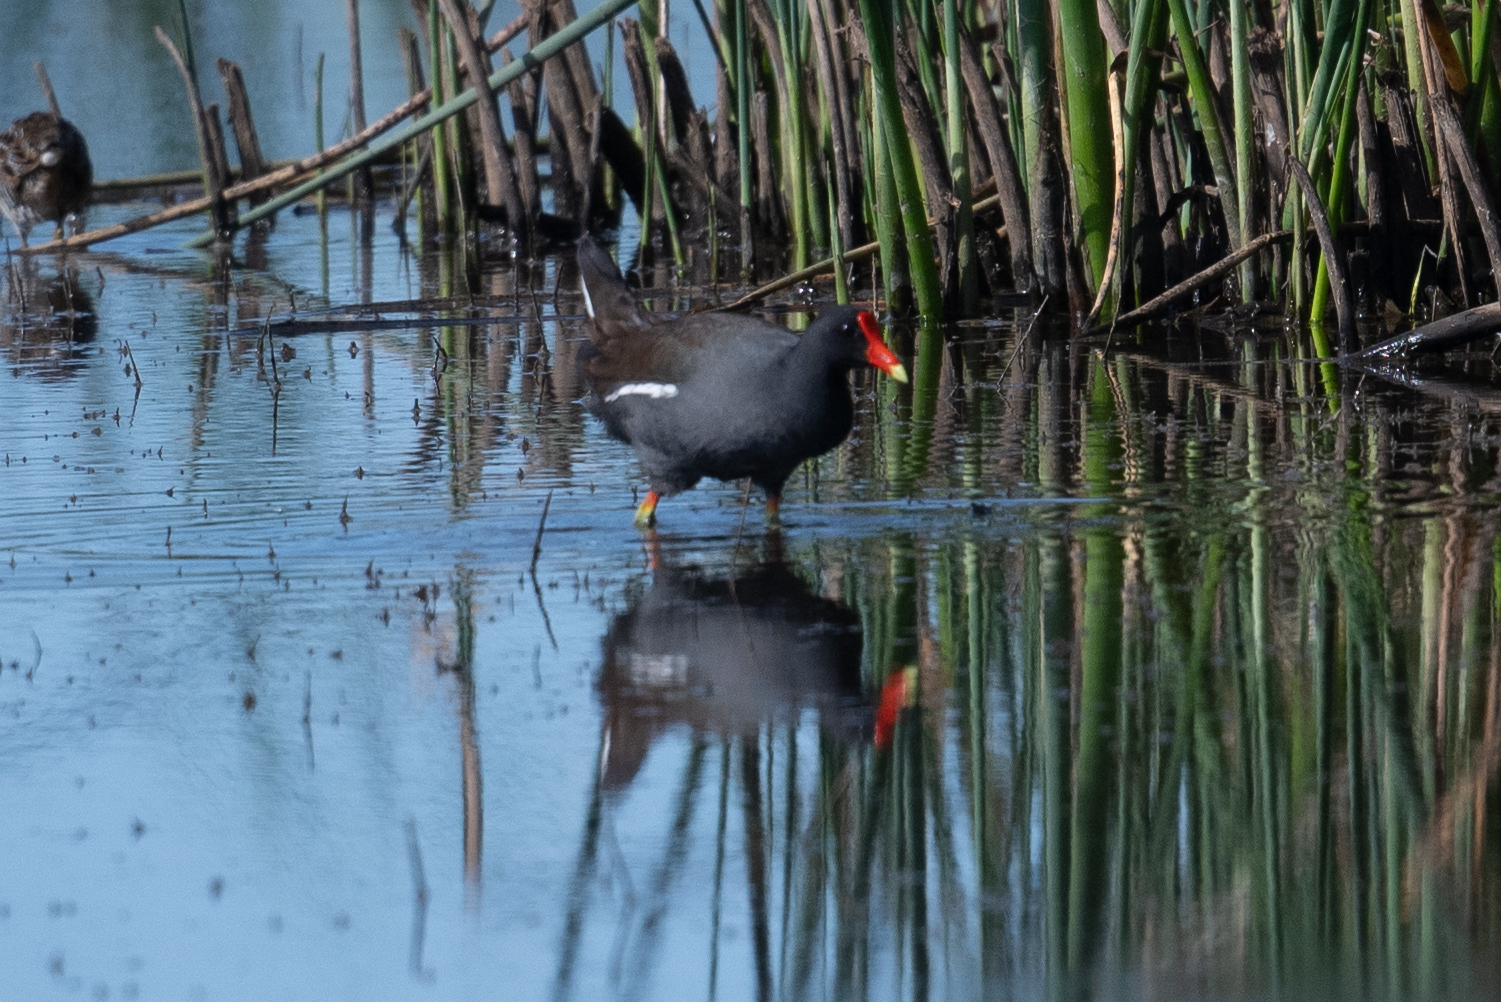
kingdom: Animalia
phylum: Chordata
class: Aves
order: Gruiformes
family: Rallidae
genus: Gallinula
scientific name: Gallinula chloropus
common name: Common moorhen
